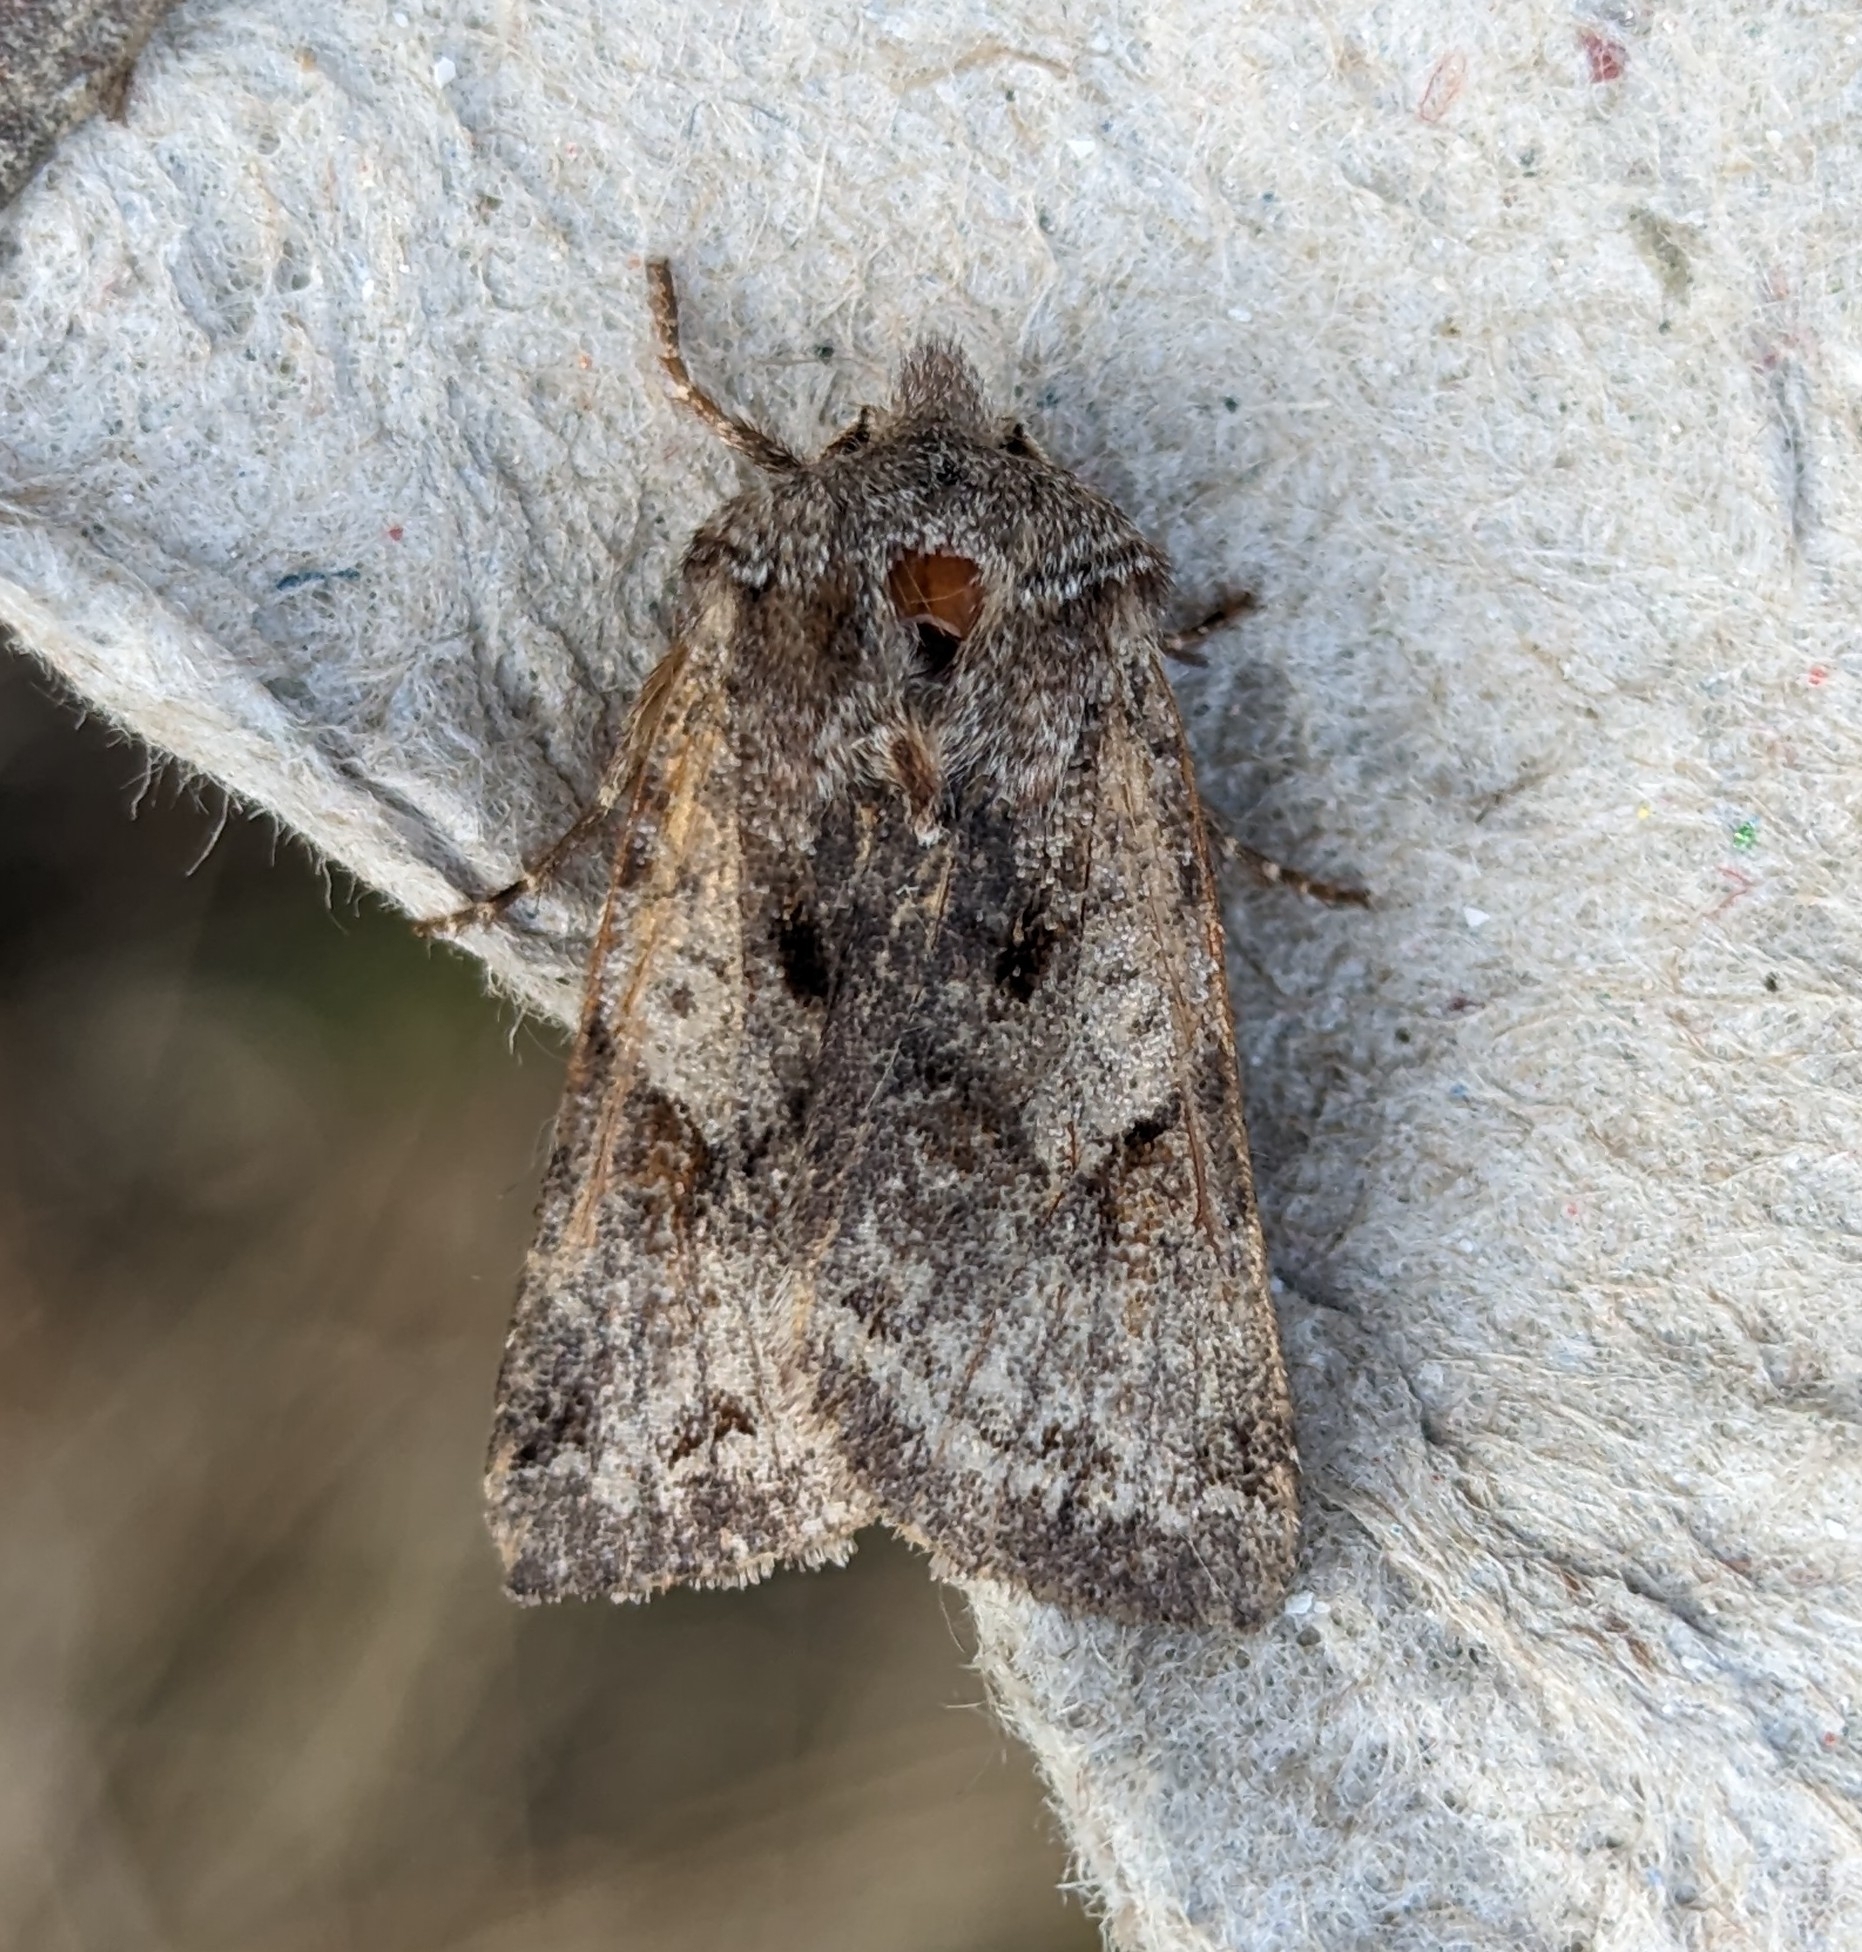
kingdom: Animalia
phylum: Arthropoda
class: Insecta
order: Lepidoptera
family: Noctuidae
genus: Cerastis
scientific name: Cerastis salicarum
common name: Willow dart
